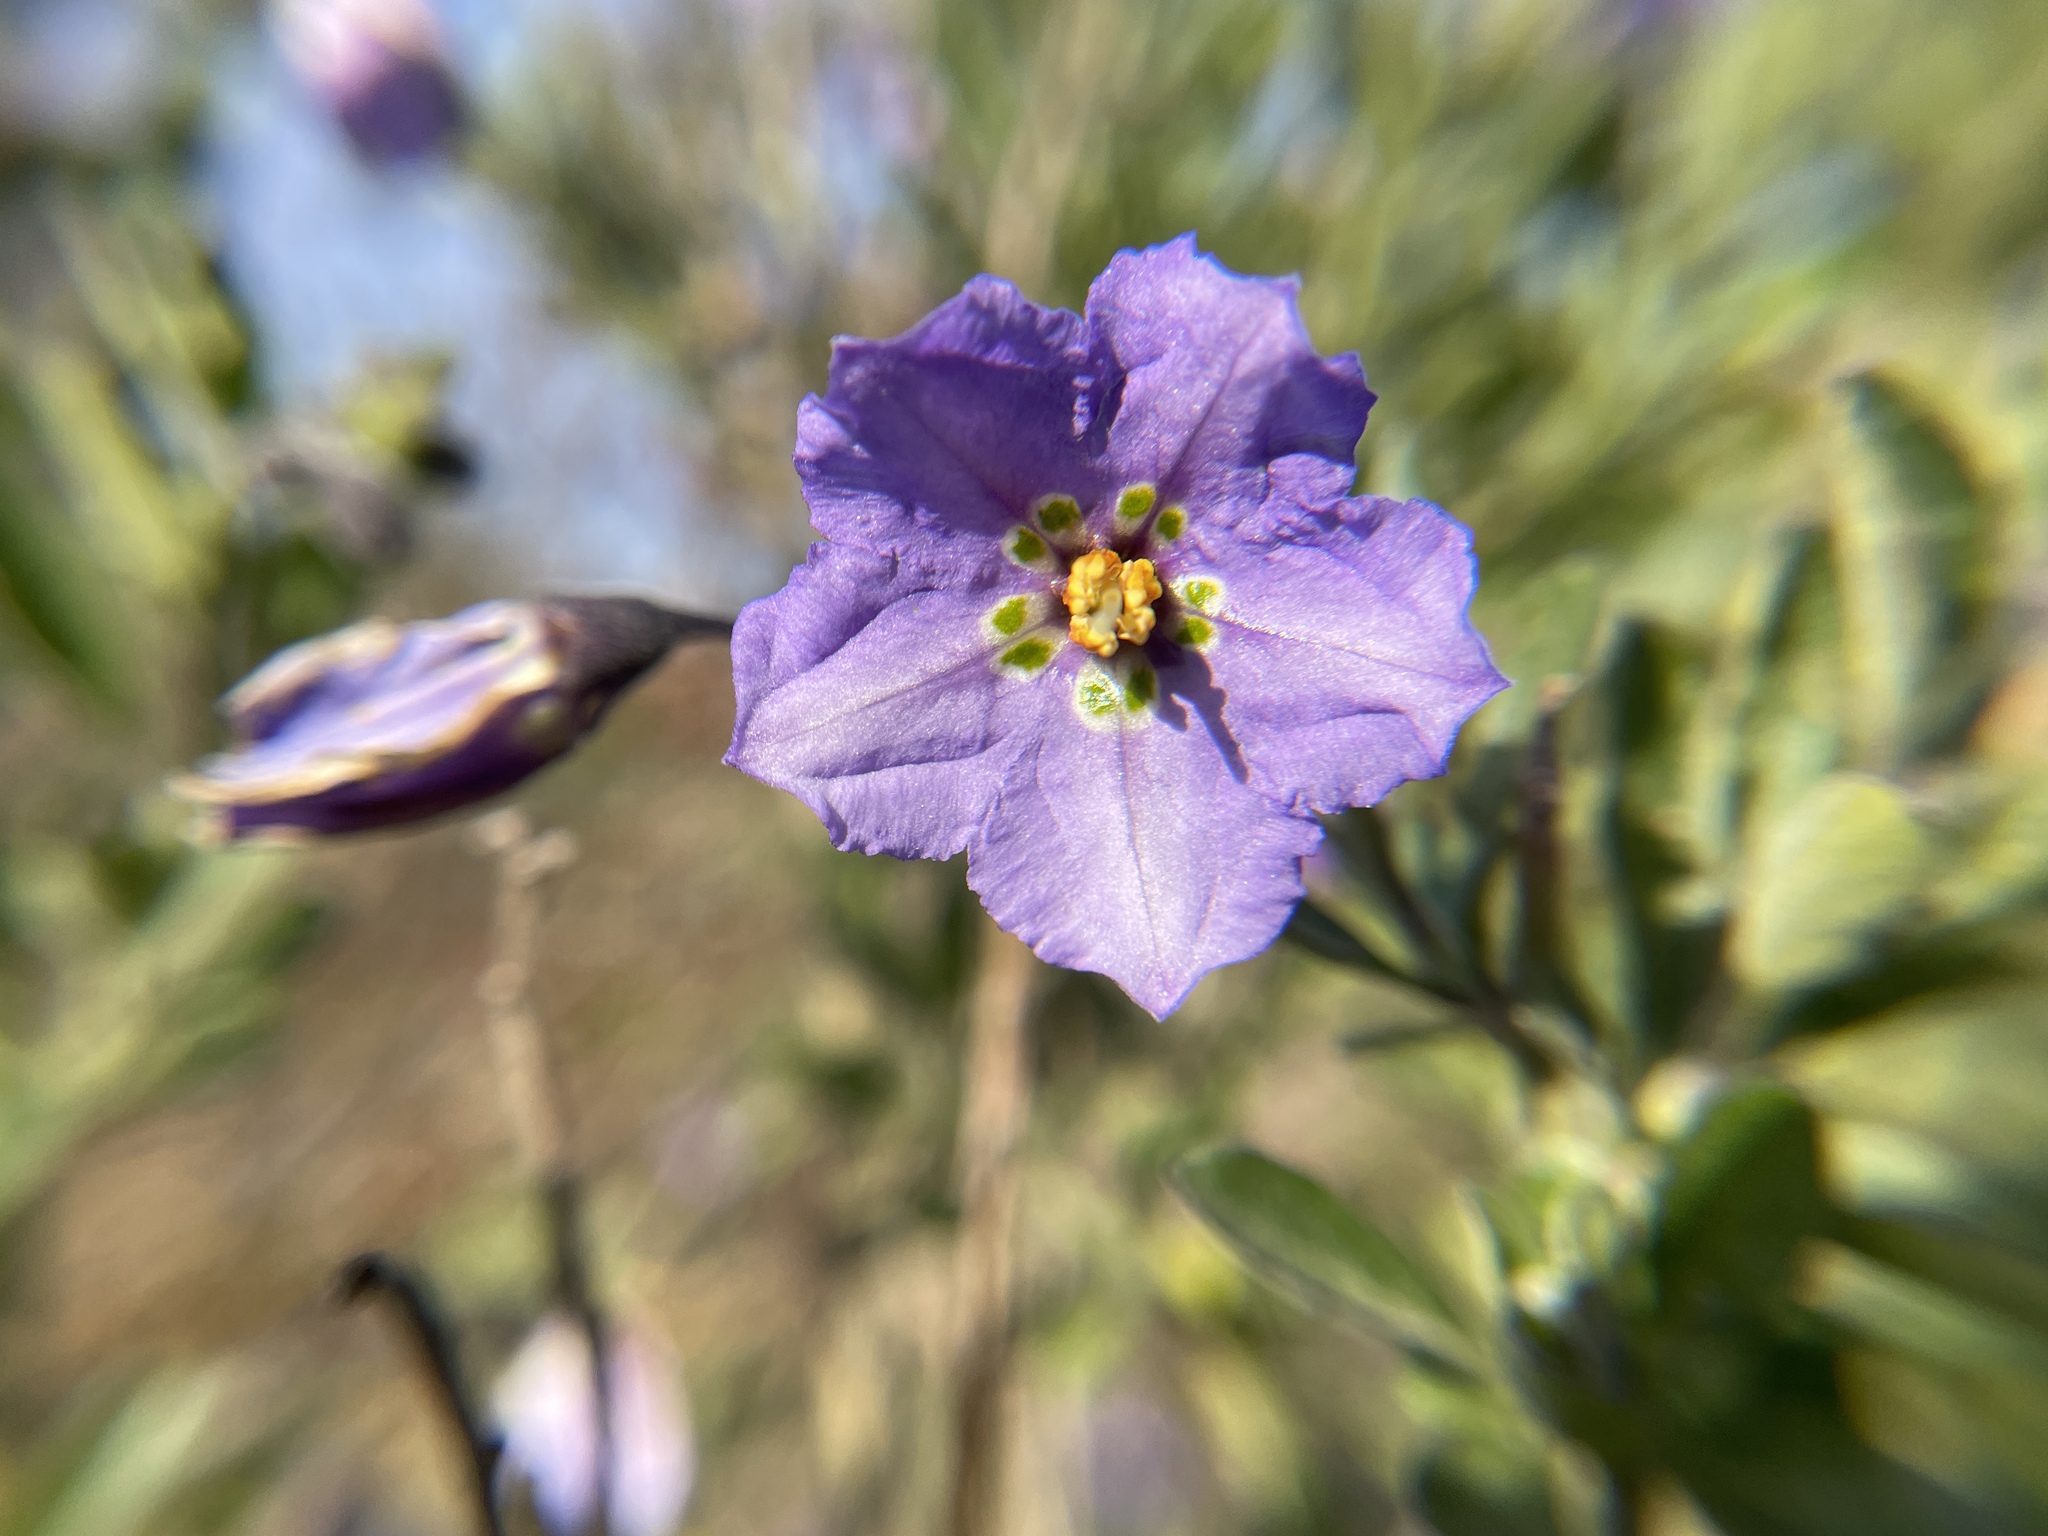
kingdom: Plantae
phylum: Tracheophyta
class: Magnoliopsida
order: Solanales
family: Solanaceae
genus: Solanum
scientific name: Solanum umbelliferum
